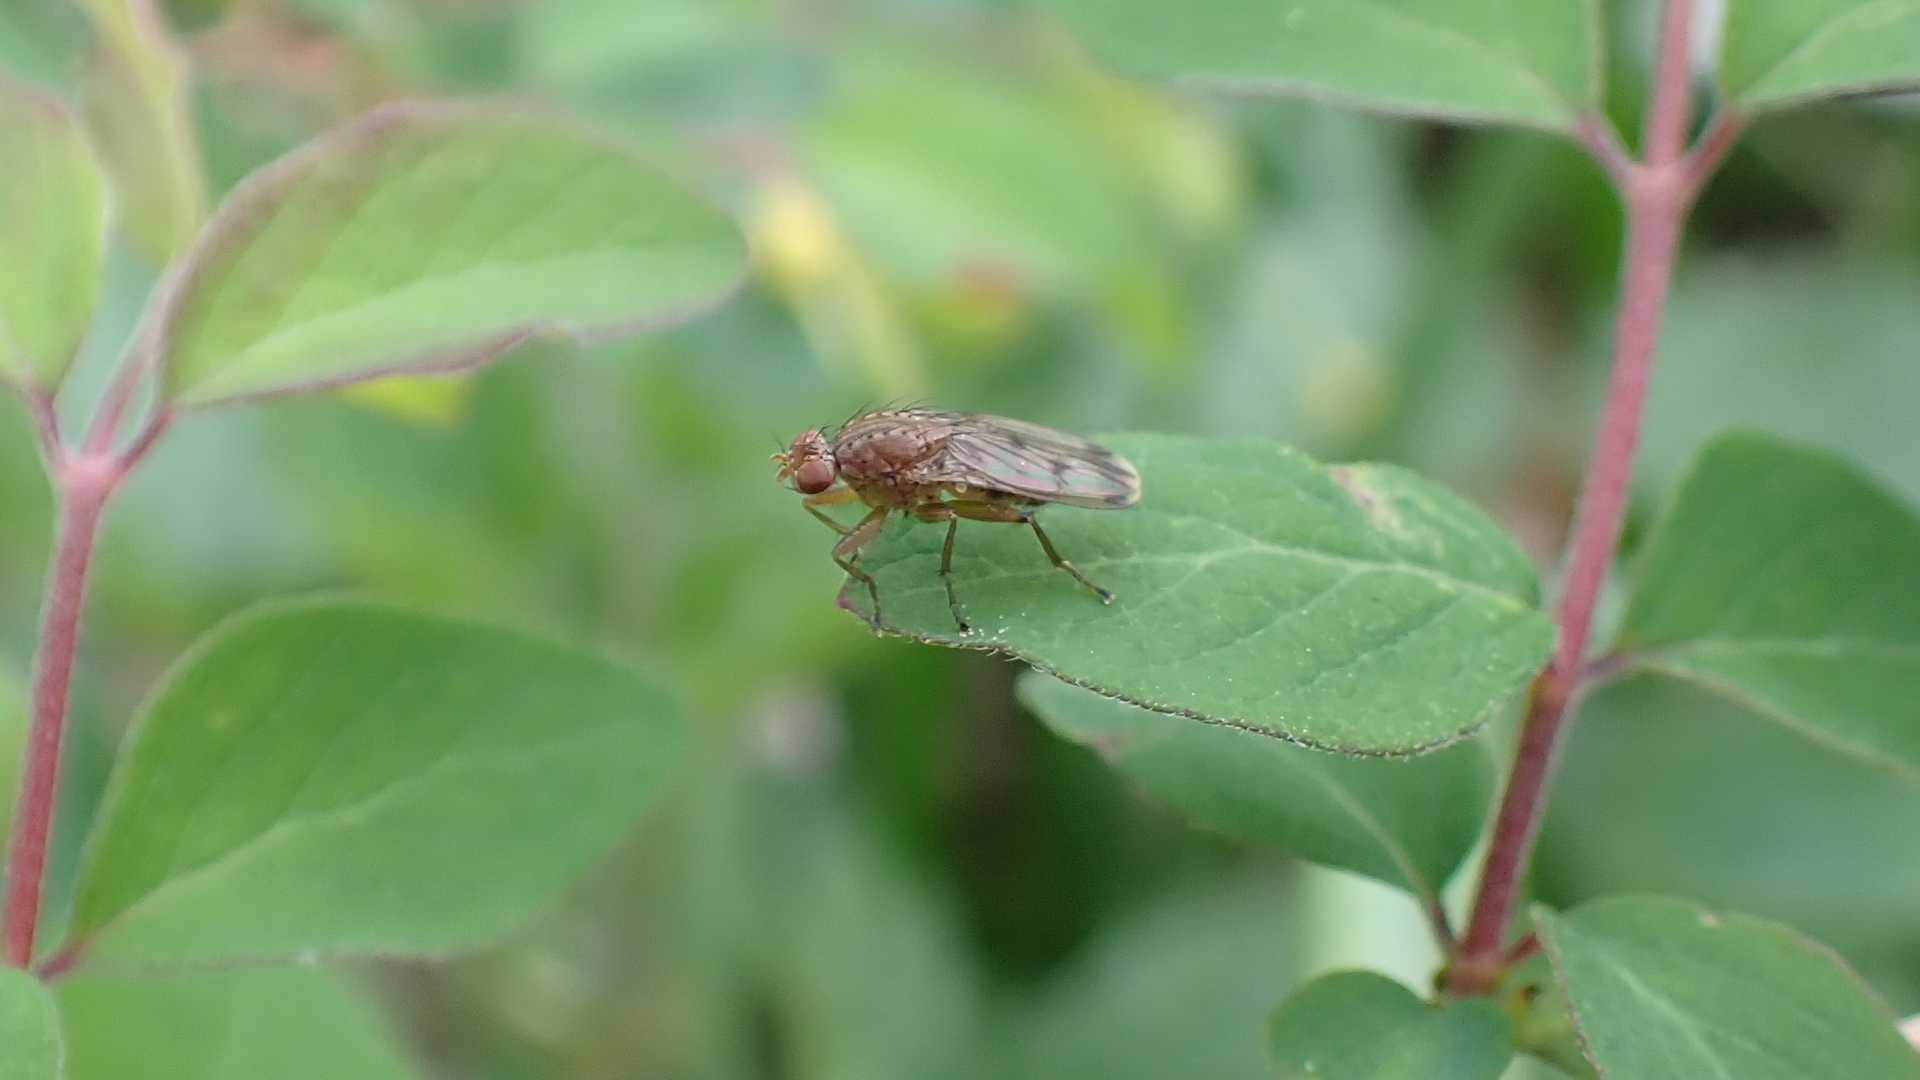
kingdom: Animalia
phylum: Arthropoda
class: Insecta
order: Diptera
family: Heleomyzidae
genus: Suillia
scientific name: Suillia variegata
